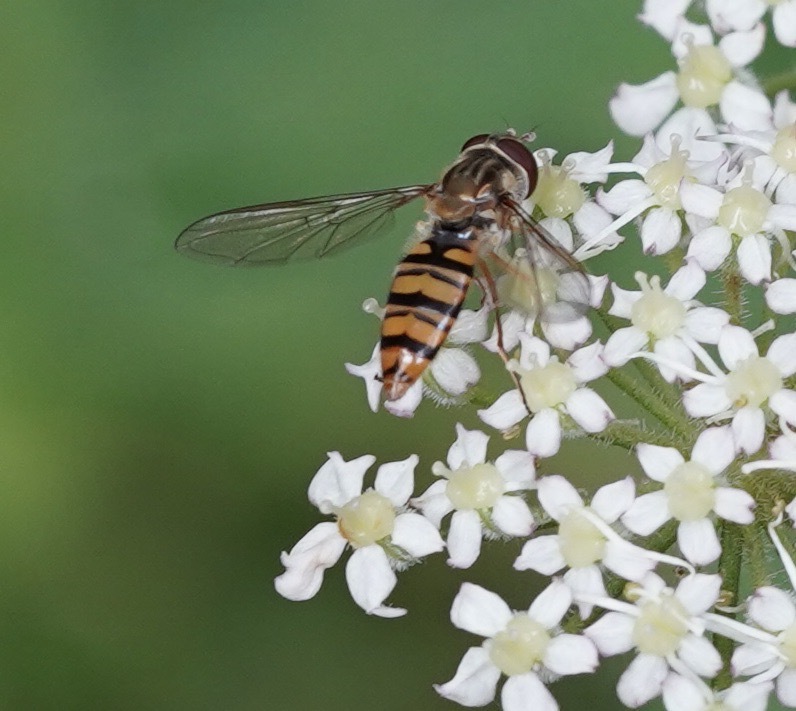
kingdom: Animalia
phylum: Arthropoda
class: Insecta
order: Diptera
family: Syrphidae
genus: Episyrphus
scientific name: Episyrphus balteatus
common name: Marmalade hoverfly
